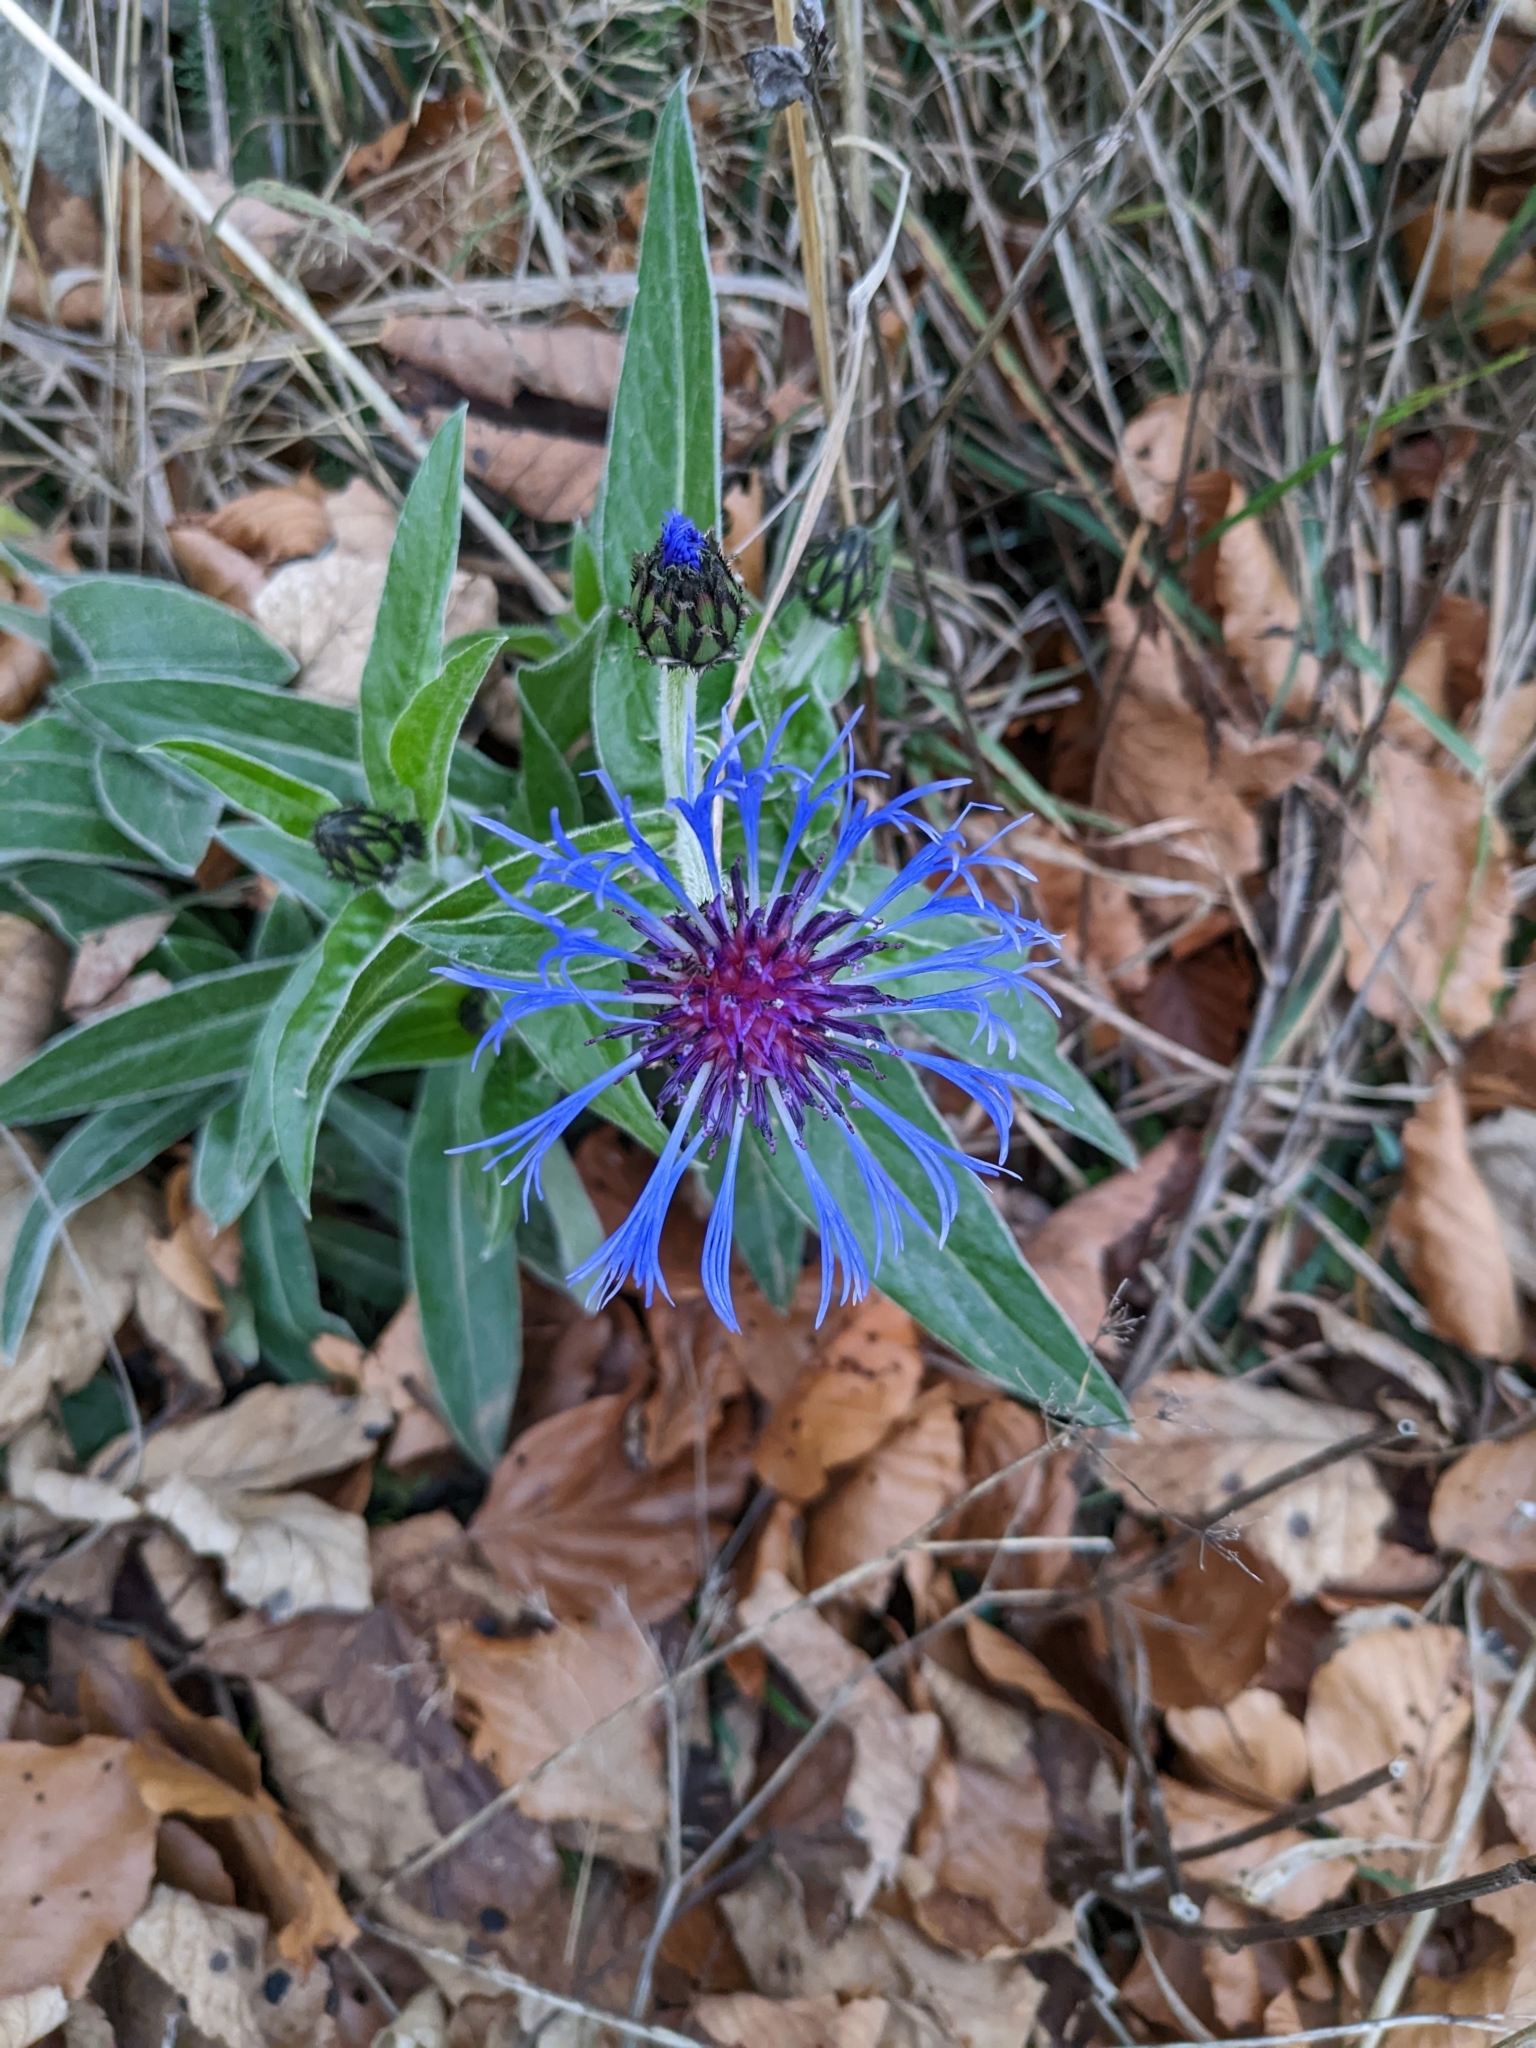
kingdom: Plantae
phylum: Tracheophyta
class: Magnoliopsida
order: Asterales
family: Asteraceae
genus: Centaurea
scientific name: Centaurea cyanus
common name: Cornflower
